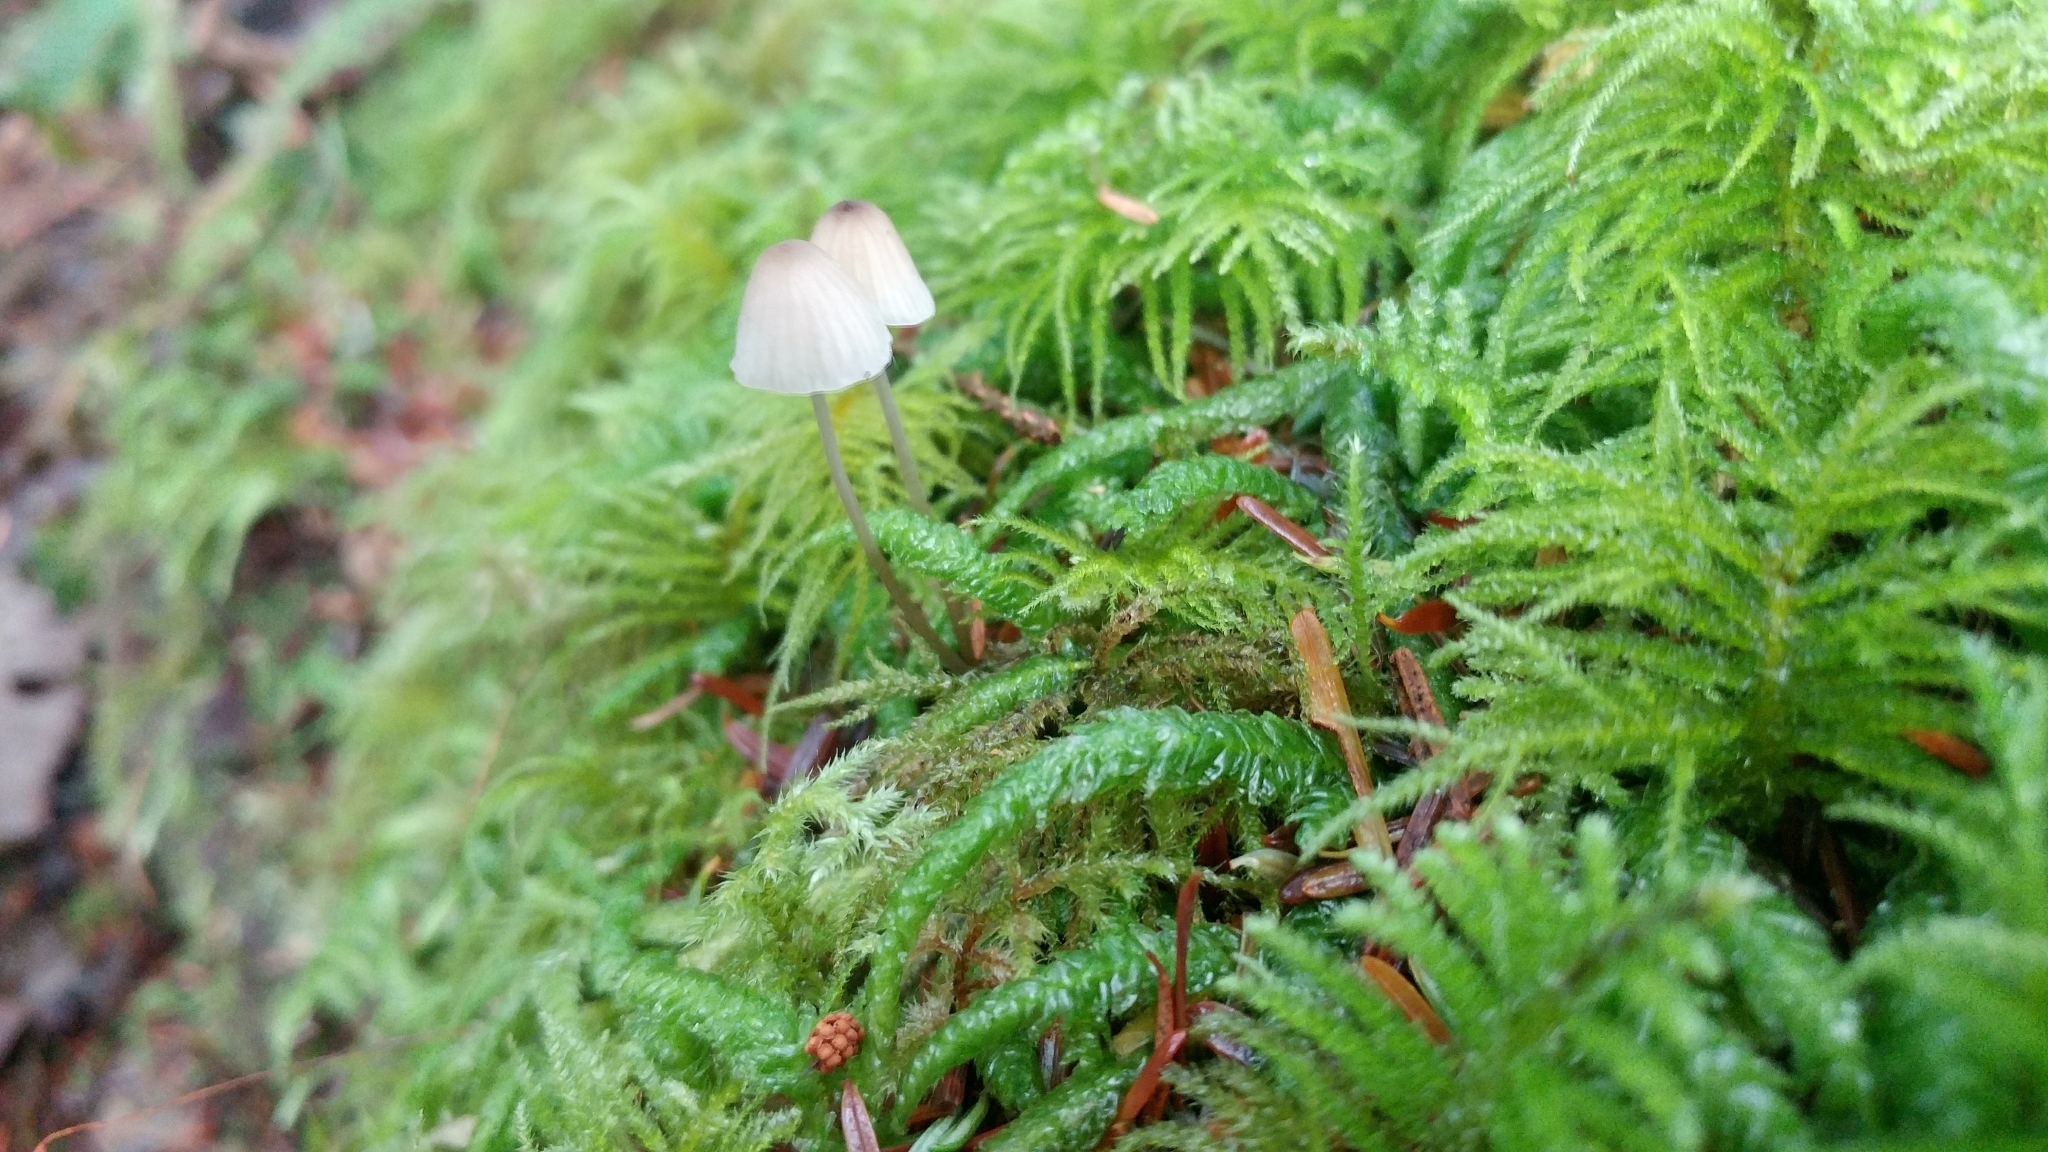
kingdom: Plantae
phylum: Bryophyta
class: Bryopsida
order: Hypnales
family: Brachytheciaceae
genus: Kindbergia
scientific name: Kindbergia oregana
